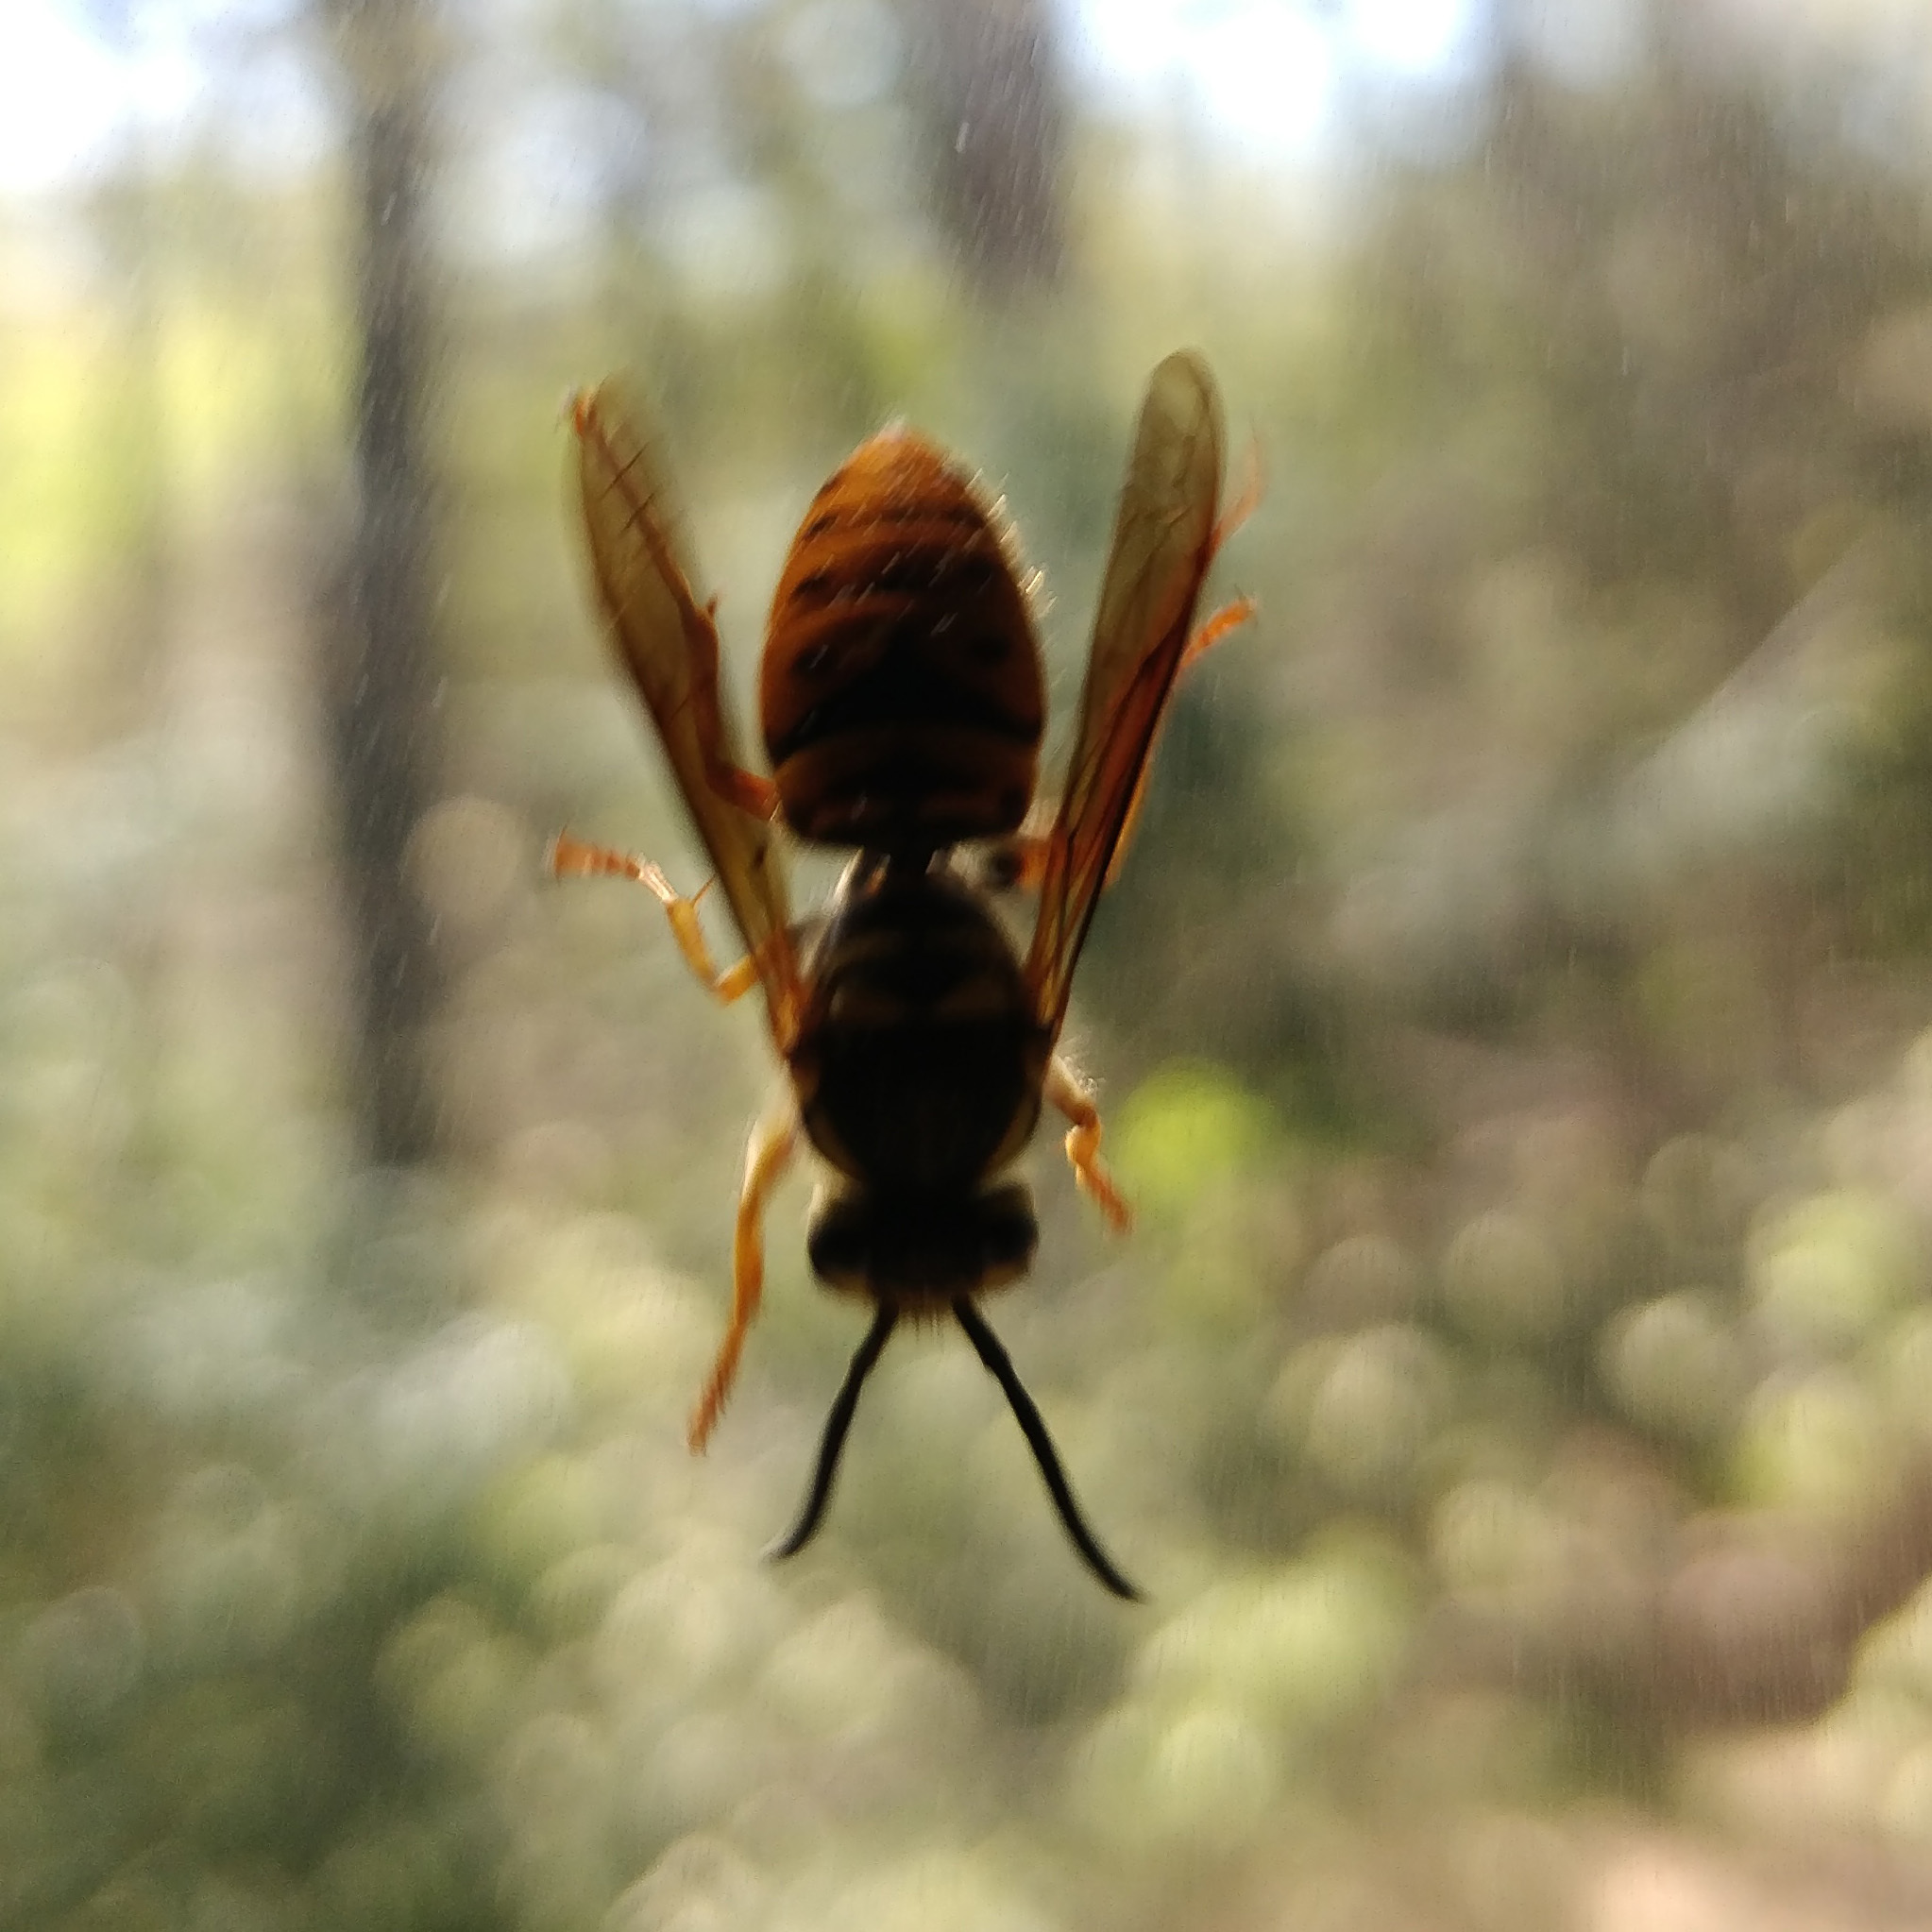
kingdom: Animalia
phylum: Arthropoda
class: Insecta
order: Hymenoptera
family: Vespidae
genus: Vespula
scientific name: Vespula maculifrons
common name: Eastern yellowjacket
